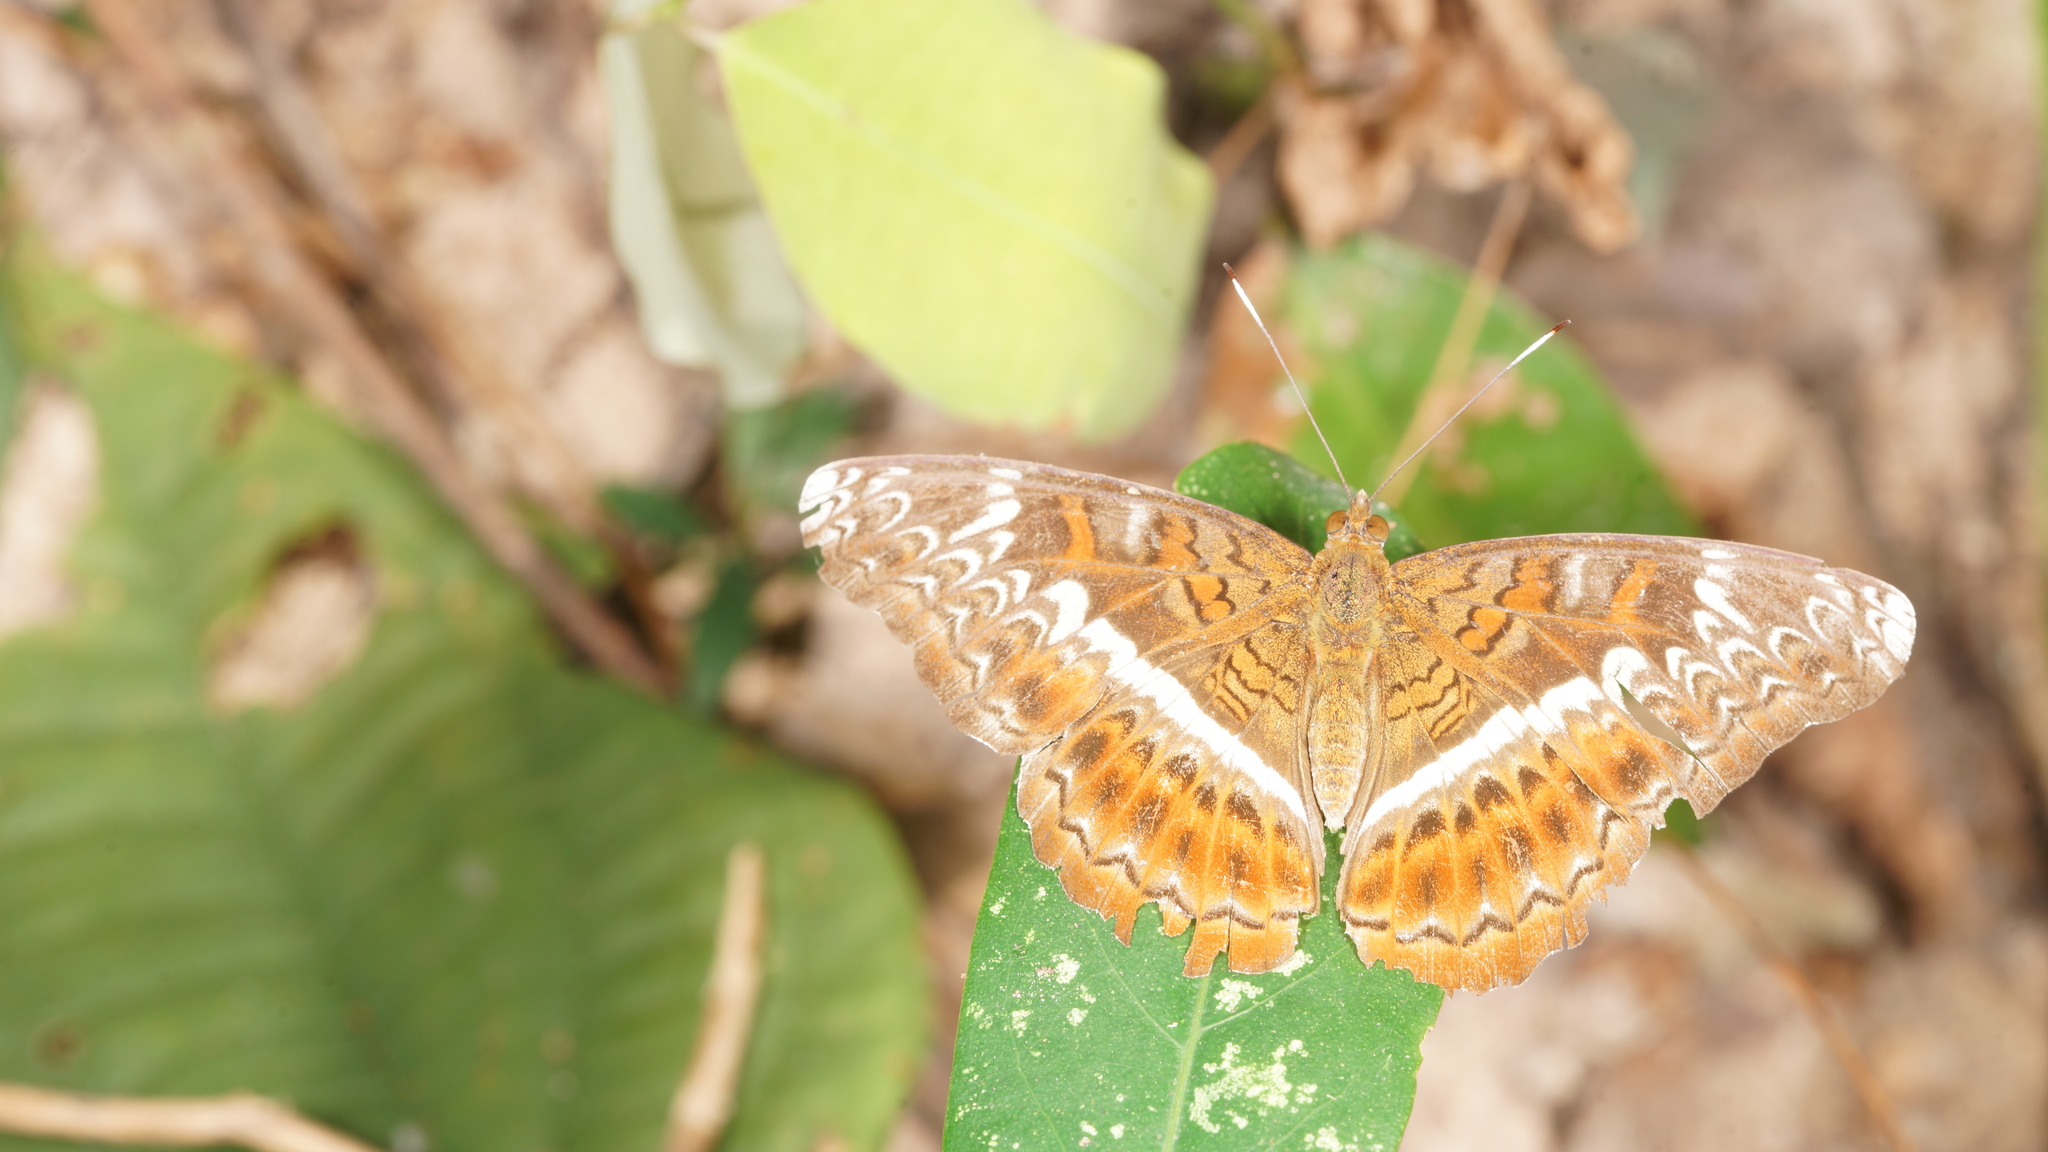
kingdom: Animalia
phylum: Arthropoda
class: Insecta
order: Lepidoptera
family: Nymphalidae
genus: Lebadea
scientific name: Lebadea martha
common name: Knight
